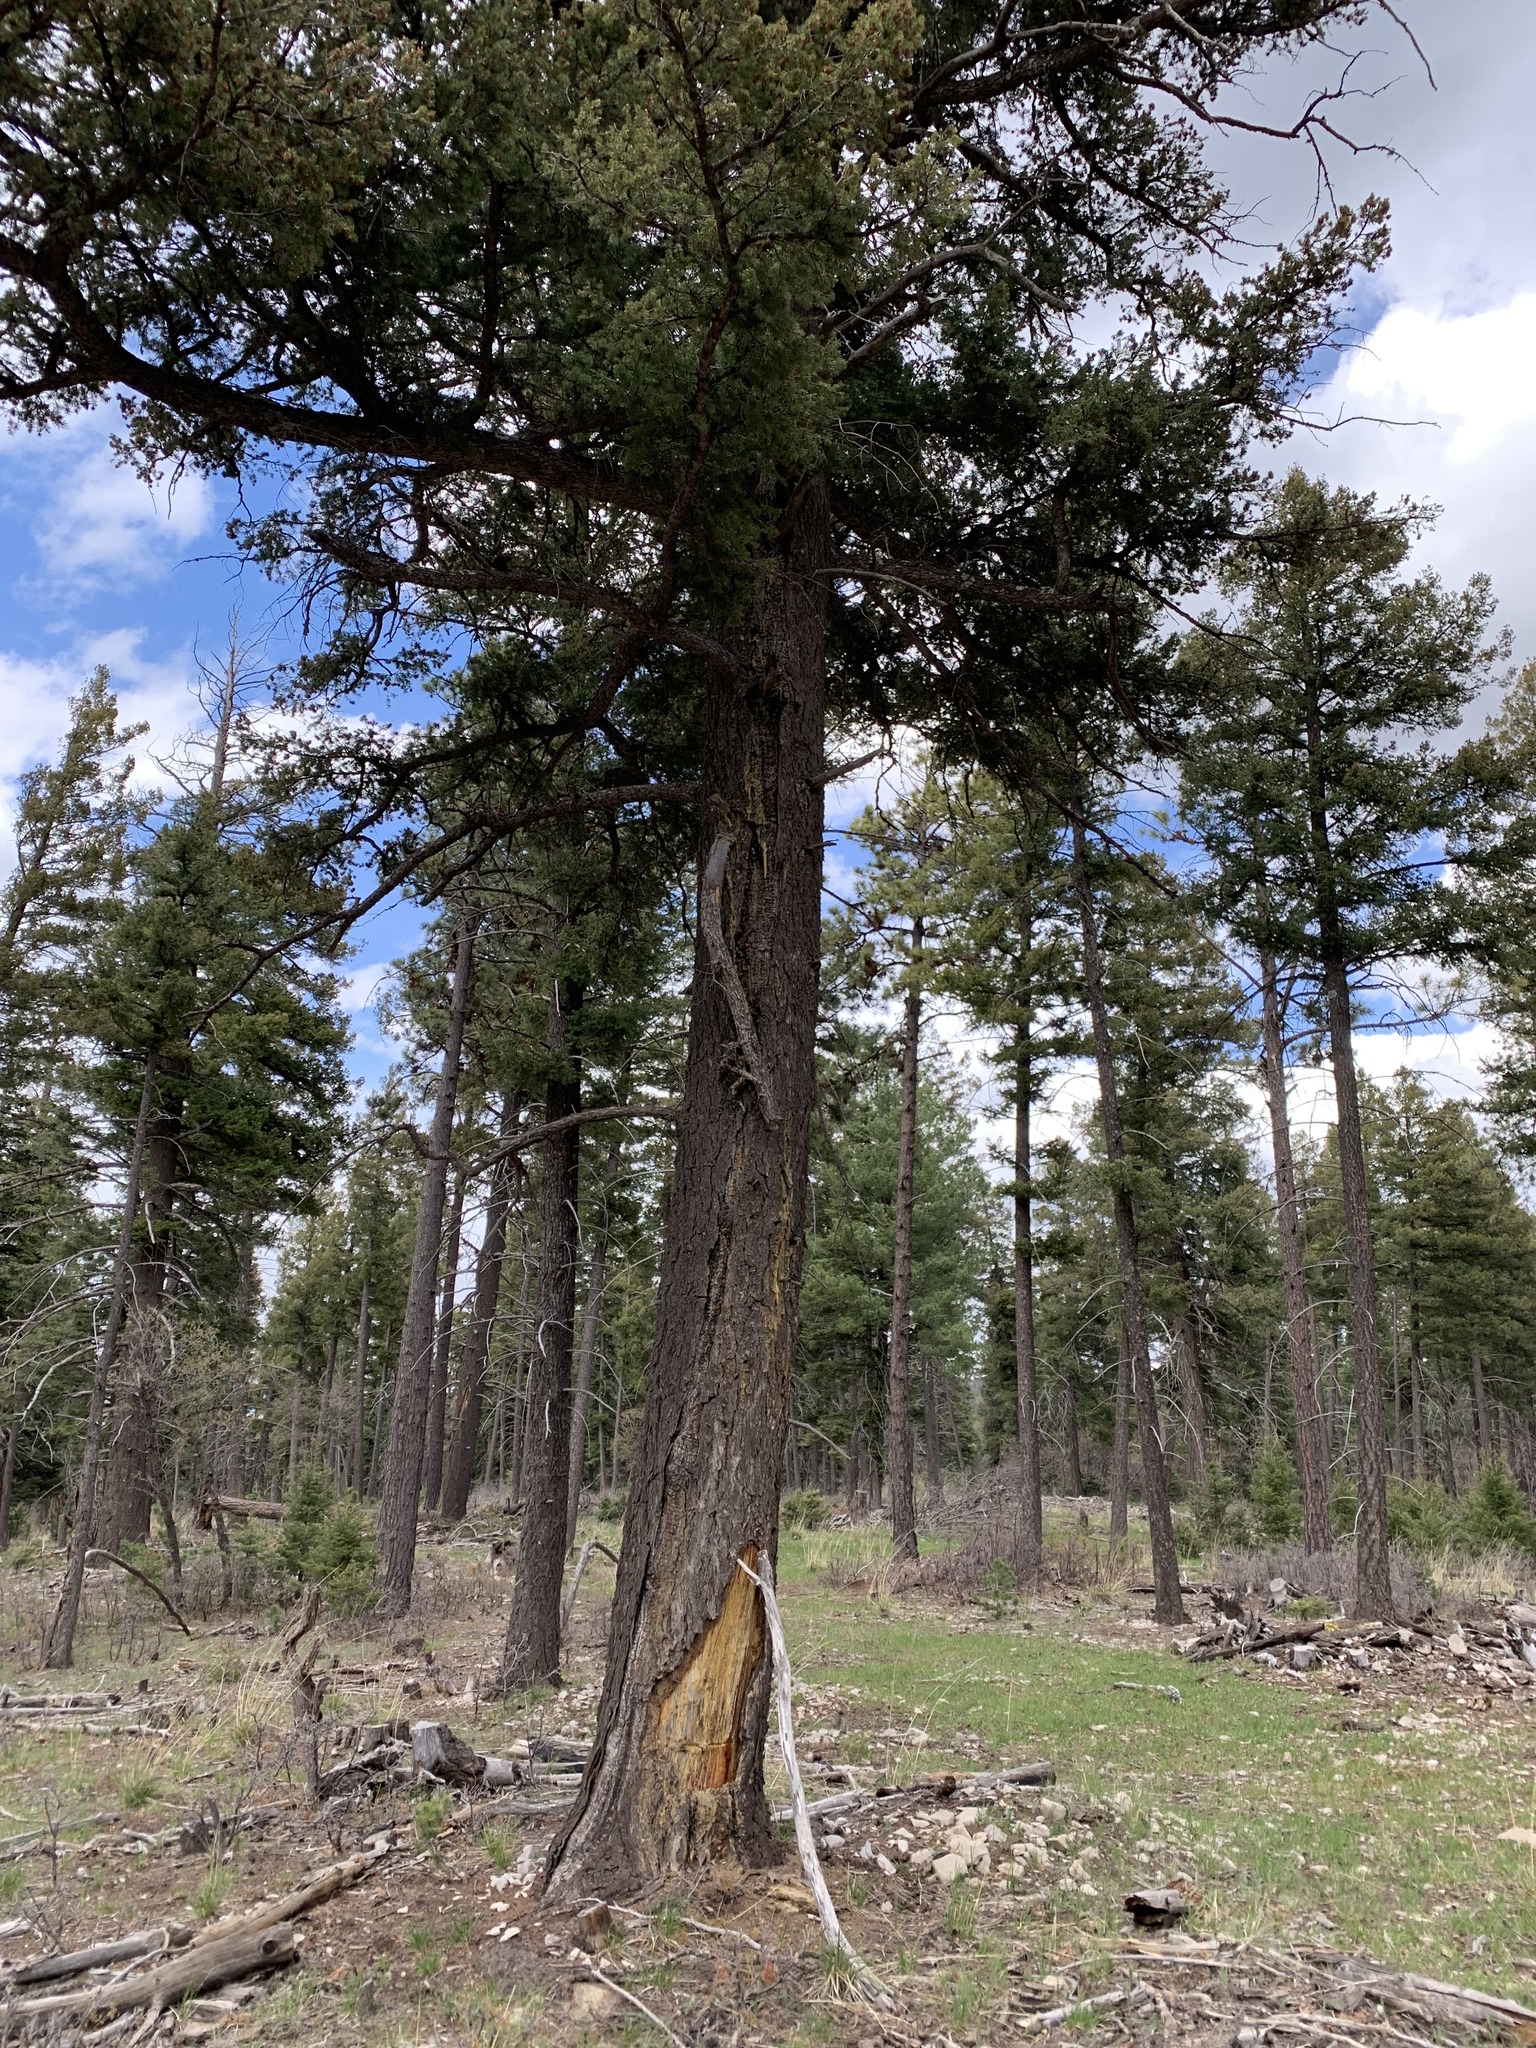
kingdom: Plantae
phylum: Tracheophyta
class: Pinopsida
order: Pinales
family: Pinaceae
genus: Pseudotsuga
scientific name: Pseudotsuga menziesii
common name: Douglas fir
